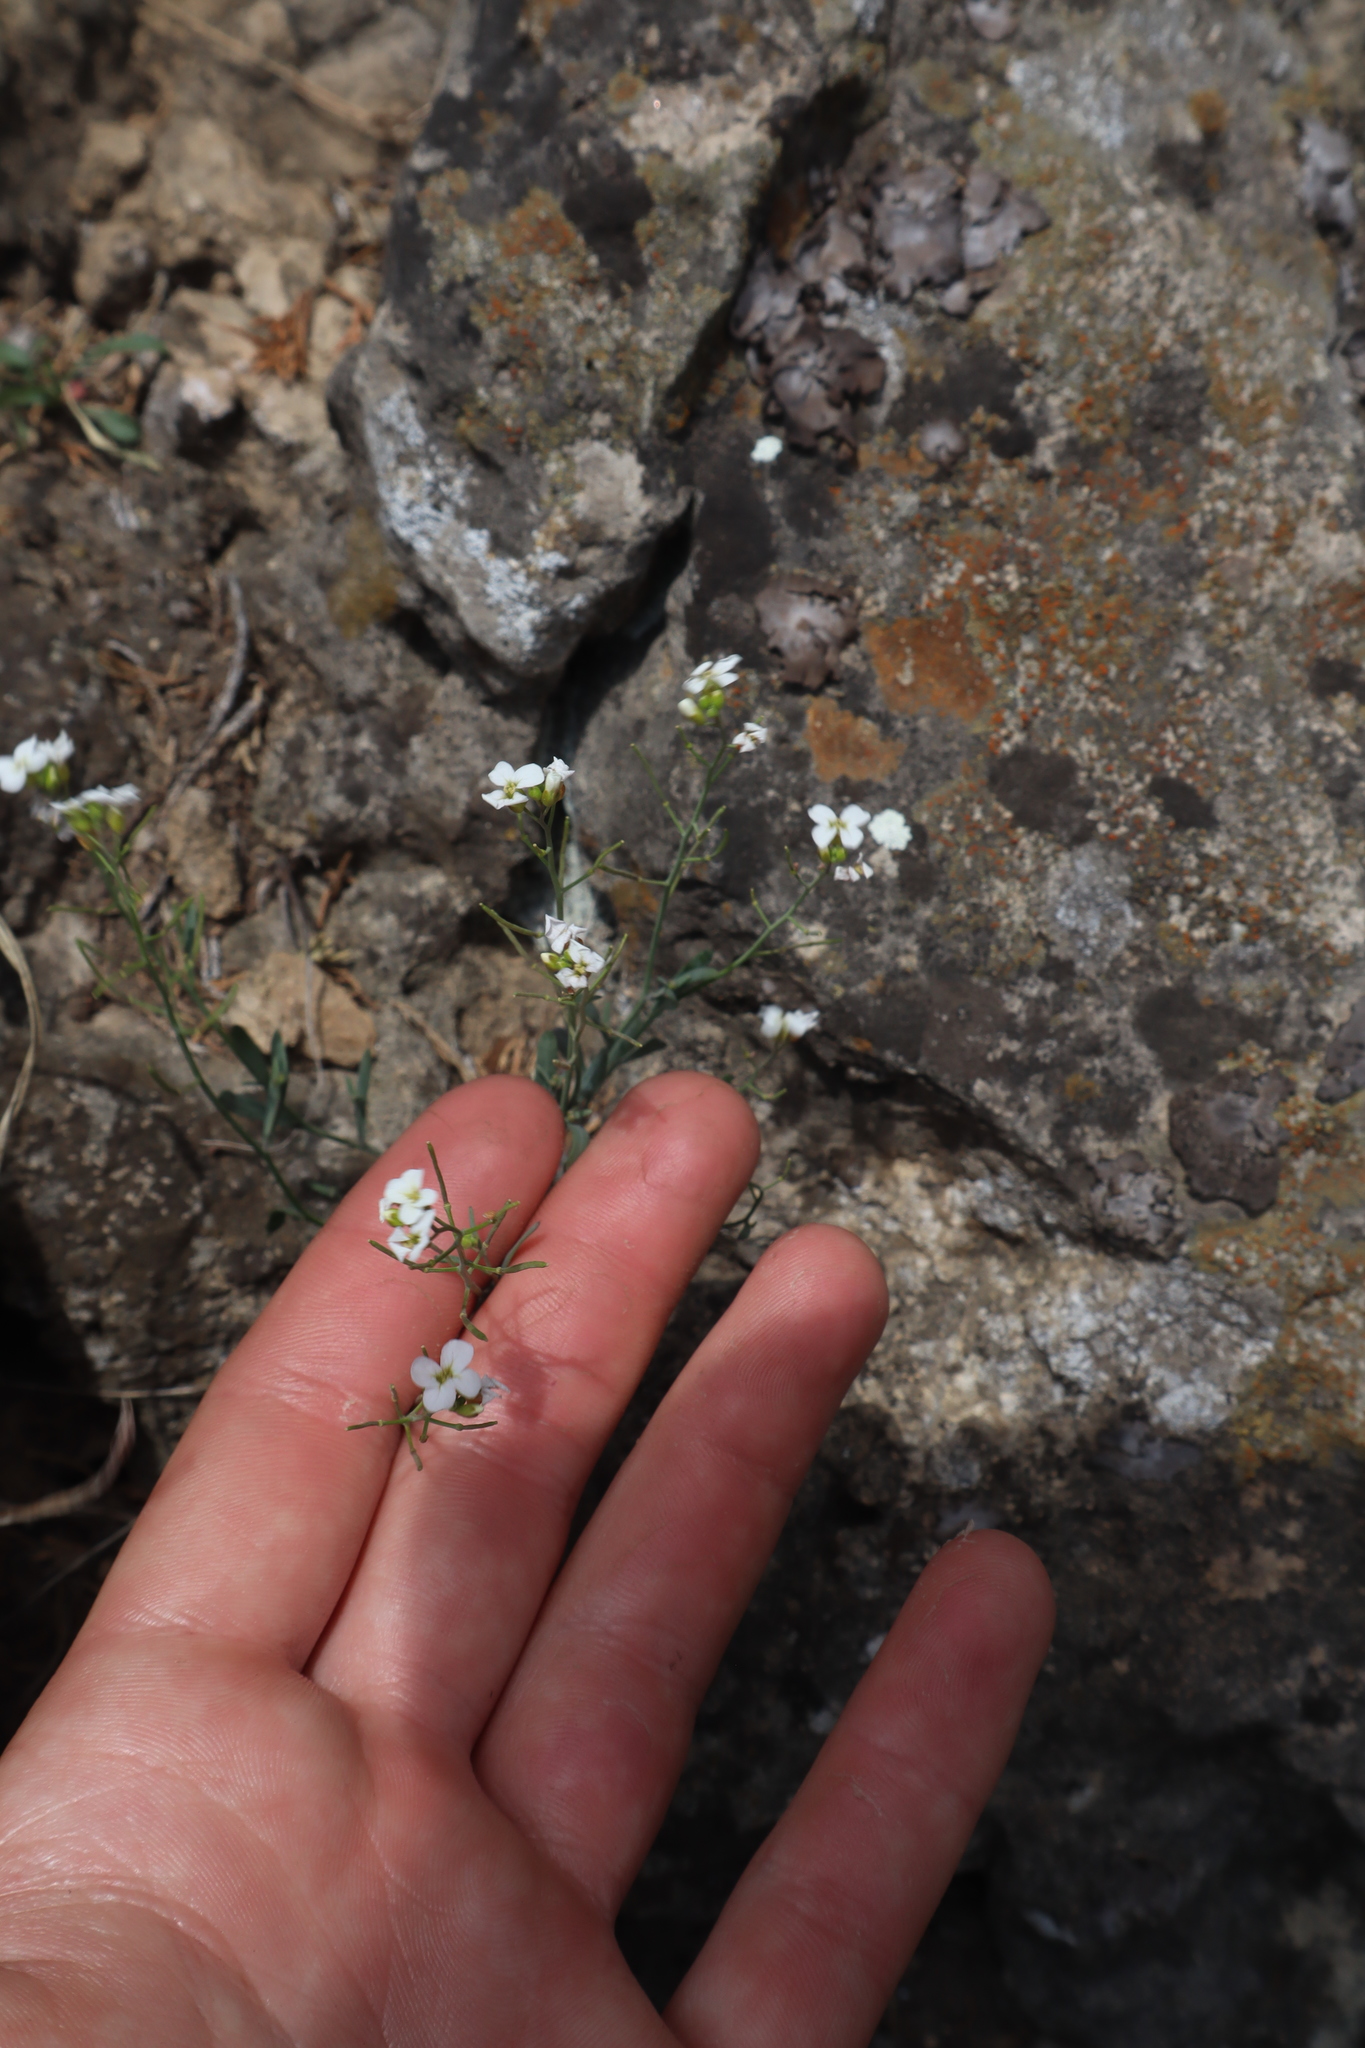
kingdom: Plantae
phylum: Tracheophyta
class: Magnoliopsida
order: Brassicales
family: Brassicaceae
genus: Arabidopsis
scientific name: Arabidopsis lyrata
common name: Lyrate rockcress
